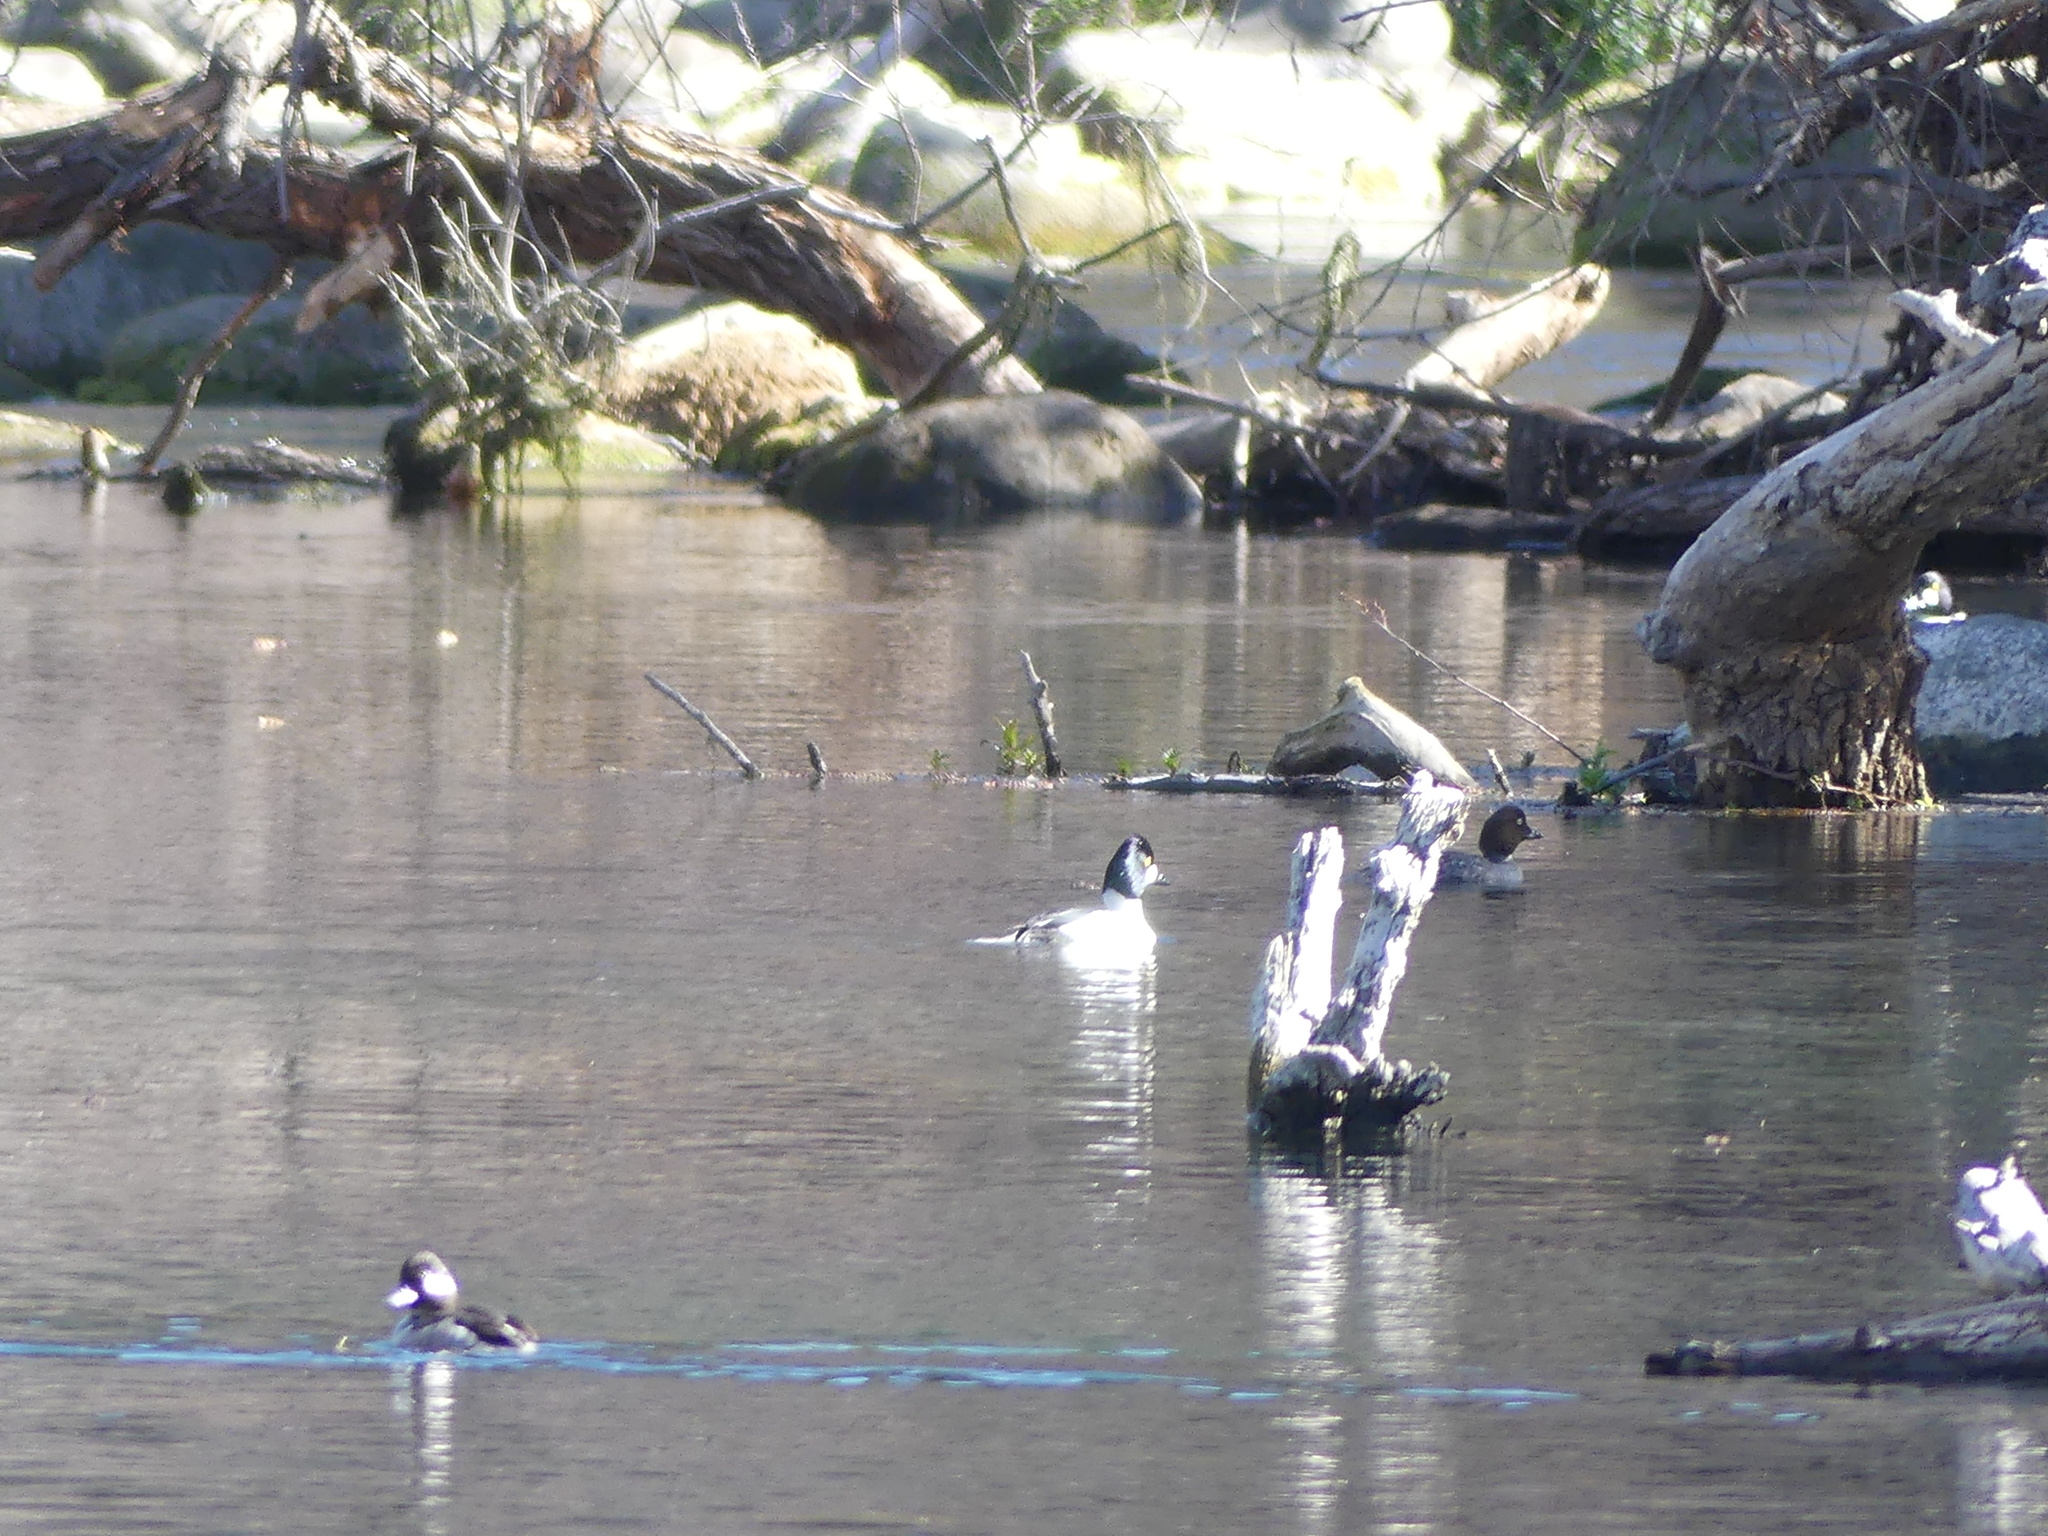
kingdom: Animalia
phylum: Chordata
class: Aves
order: Anseriformes
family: Anatidae
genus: Bucephala
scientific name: Bucephala clangula
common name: Common goldeneye
